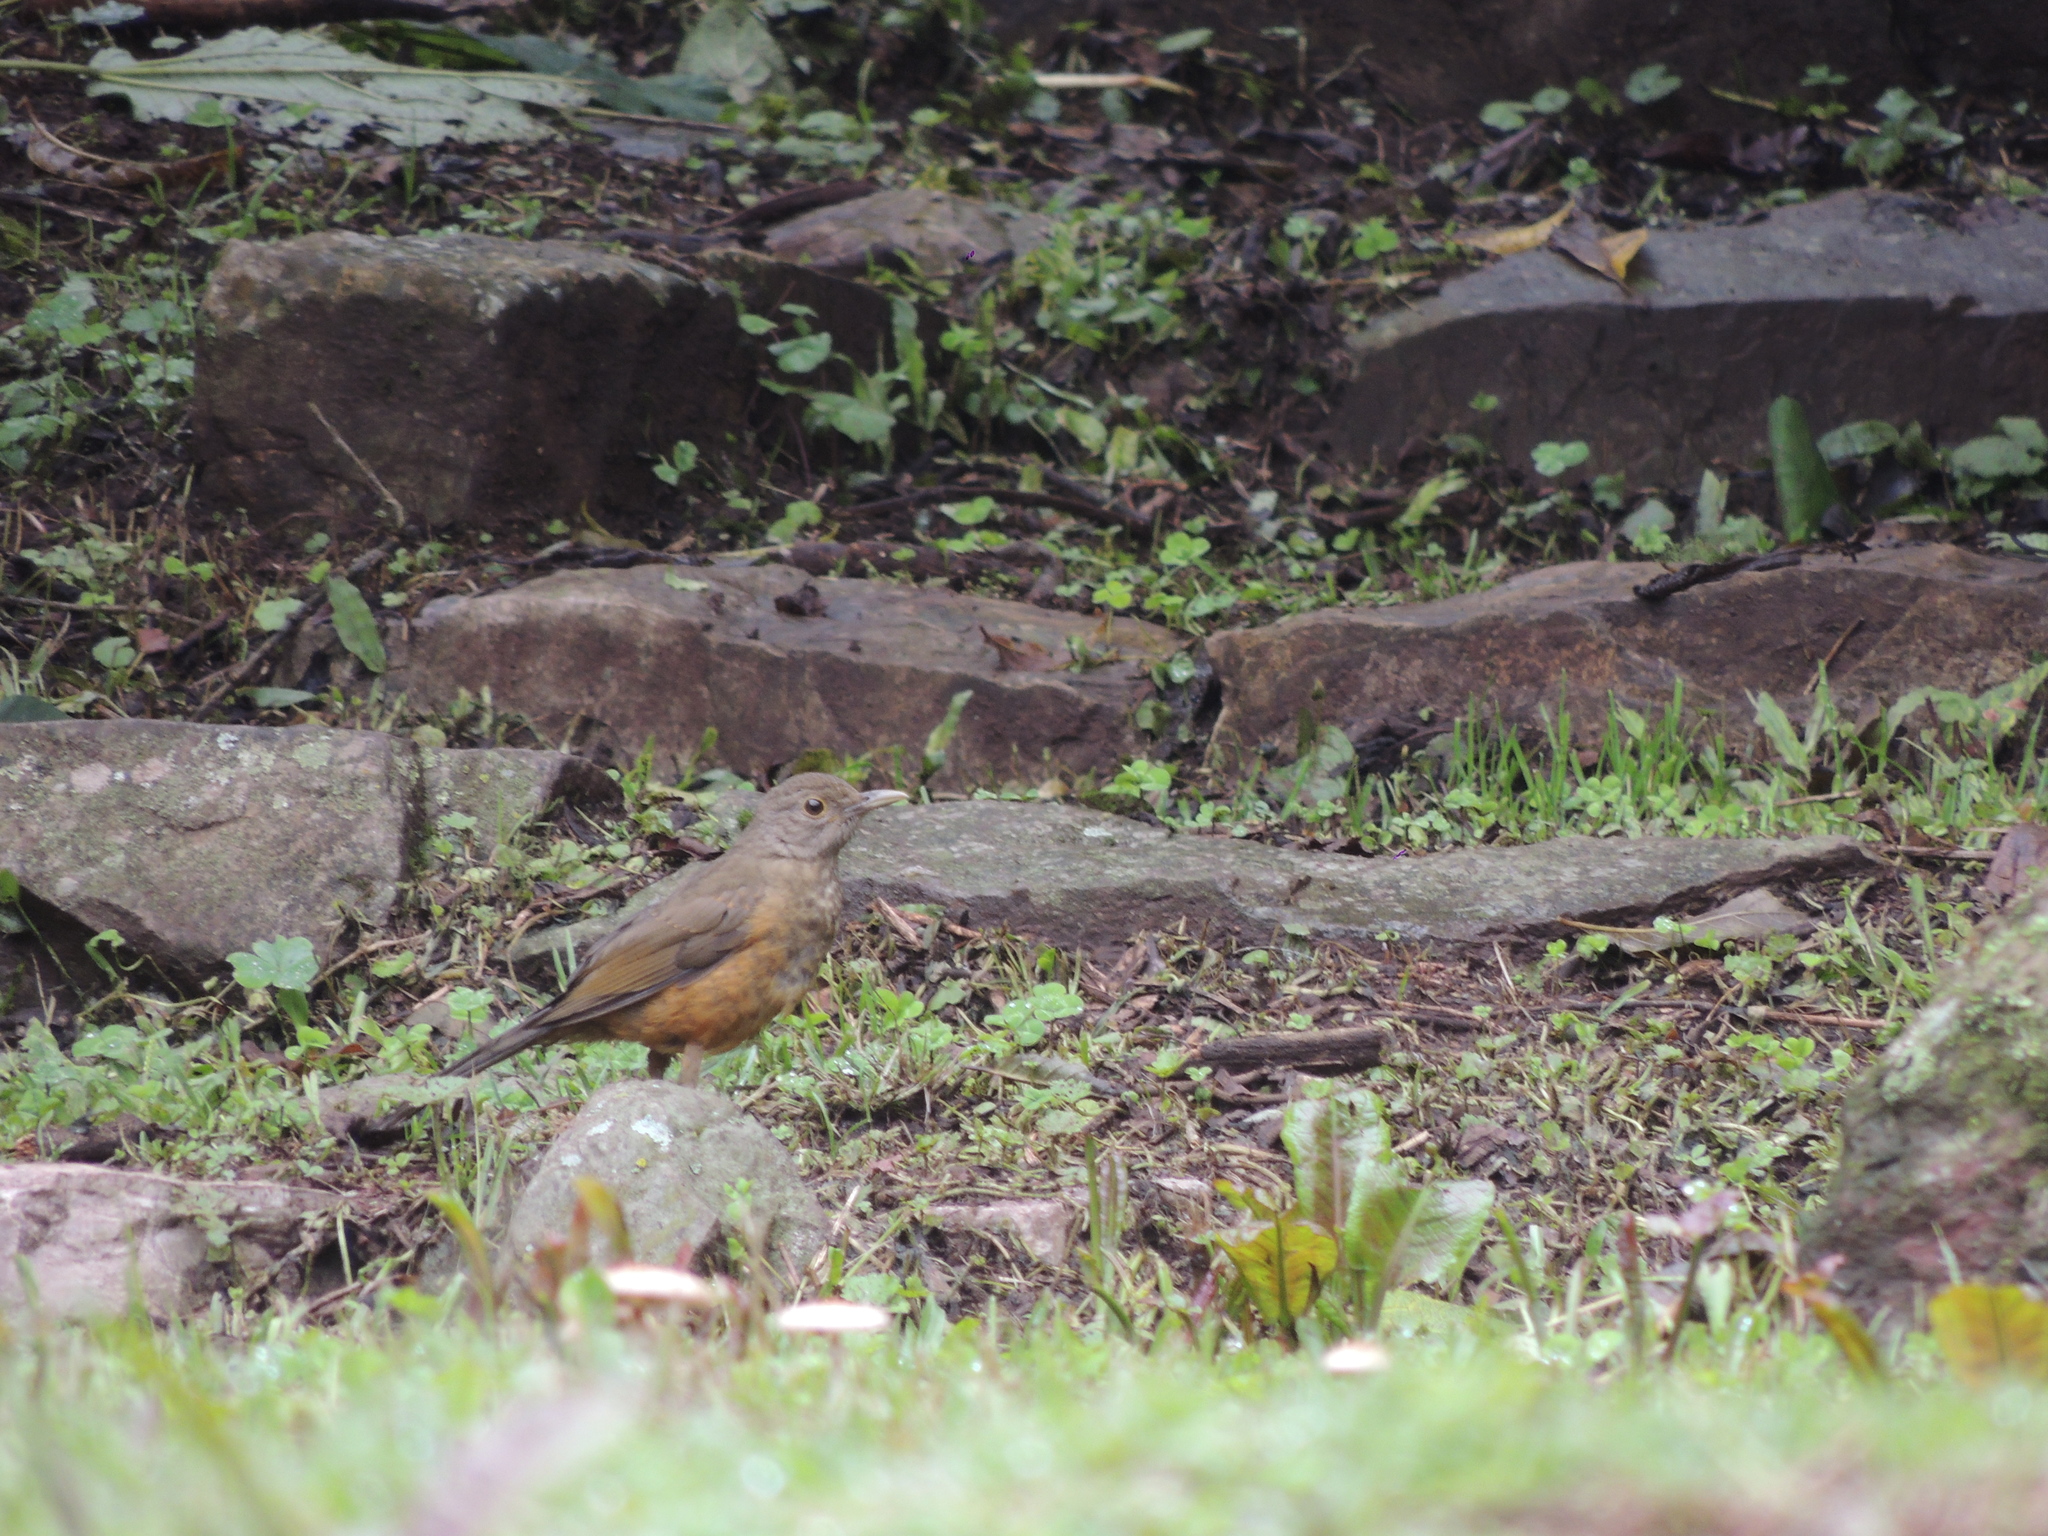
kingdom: Animalia
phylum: Chordata
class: Aves
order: Passeriformes
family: Turdidae
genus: Turdus
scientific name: Turdus rufiventris
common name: Rufous-bellied thrush
